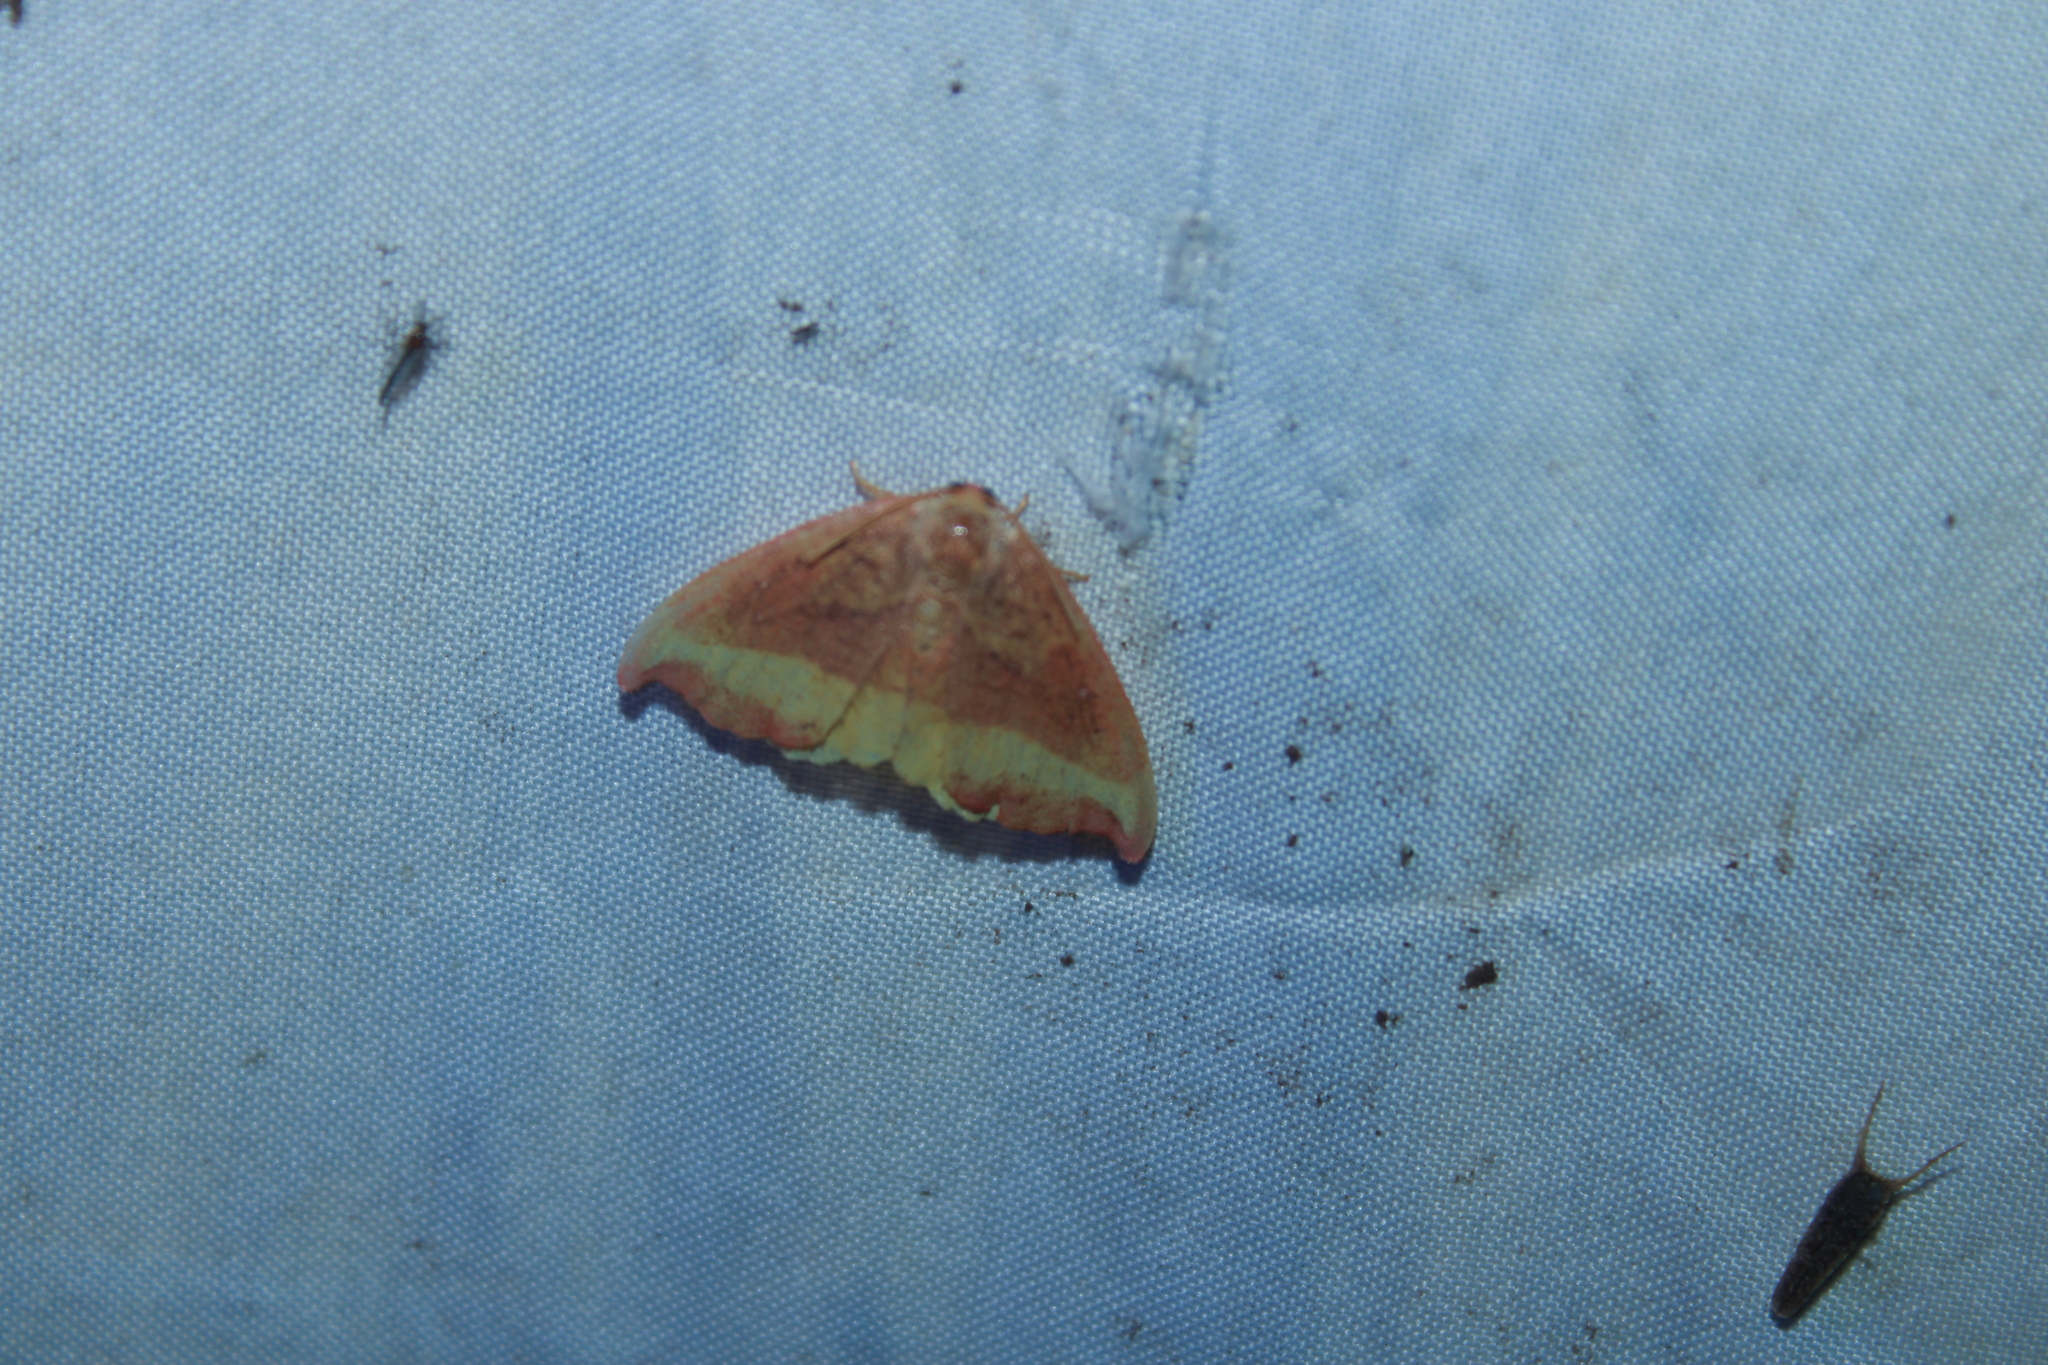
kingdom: Animalia
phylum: Arthropoda
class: Insecta
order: Lepidoptera
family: Drepanidae
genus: Oreta
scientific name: Oreta rosea
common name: Rose hooktip
